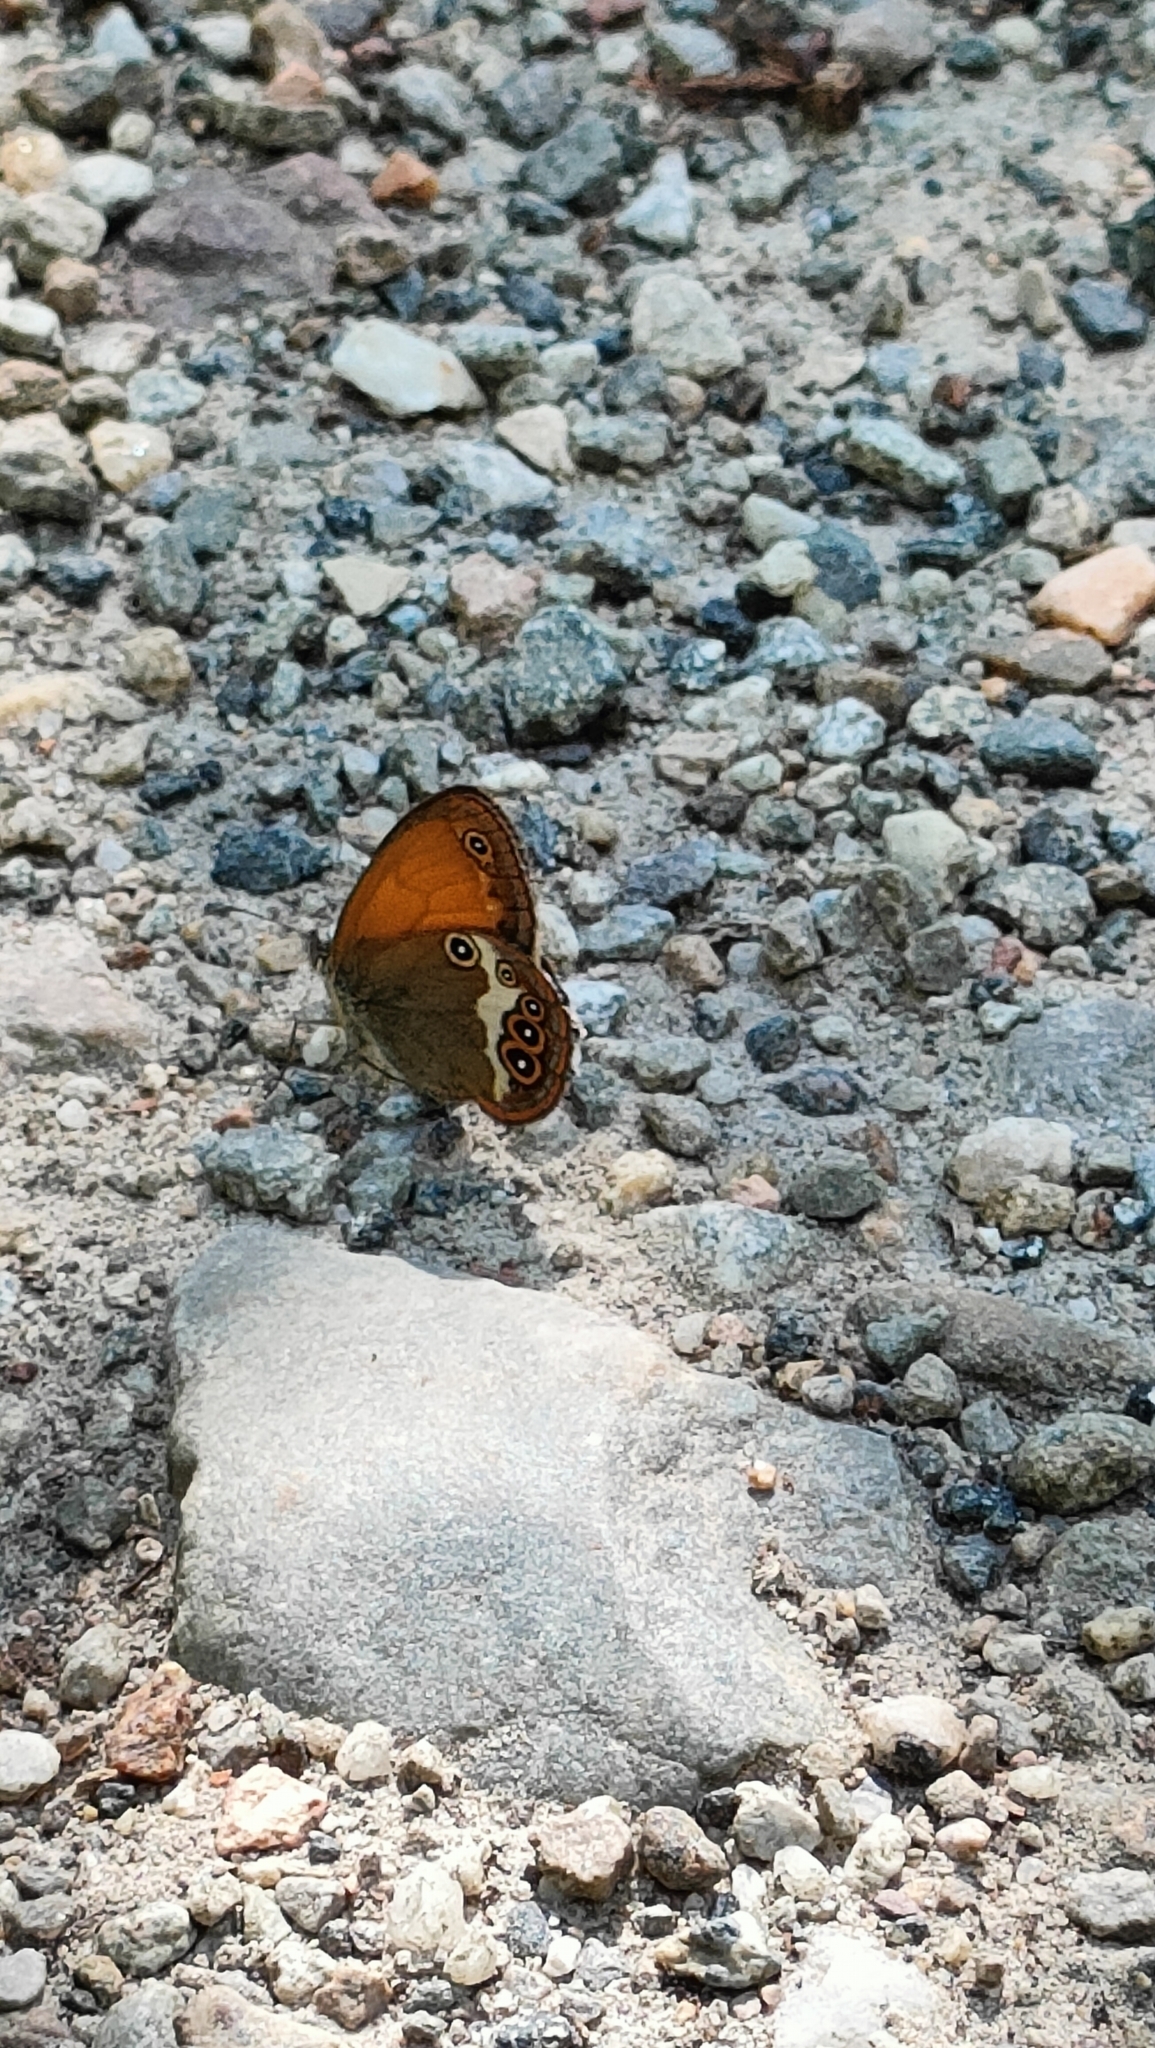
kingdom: Animalia
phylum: Arthropoda
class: Insecta
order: Lepidoptera
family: Nymphalidae
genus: Coenonympha
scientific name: Coenonympha arcania
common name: Pearly heath
